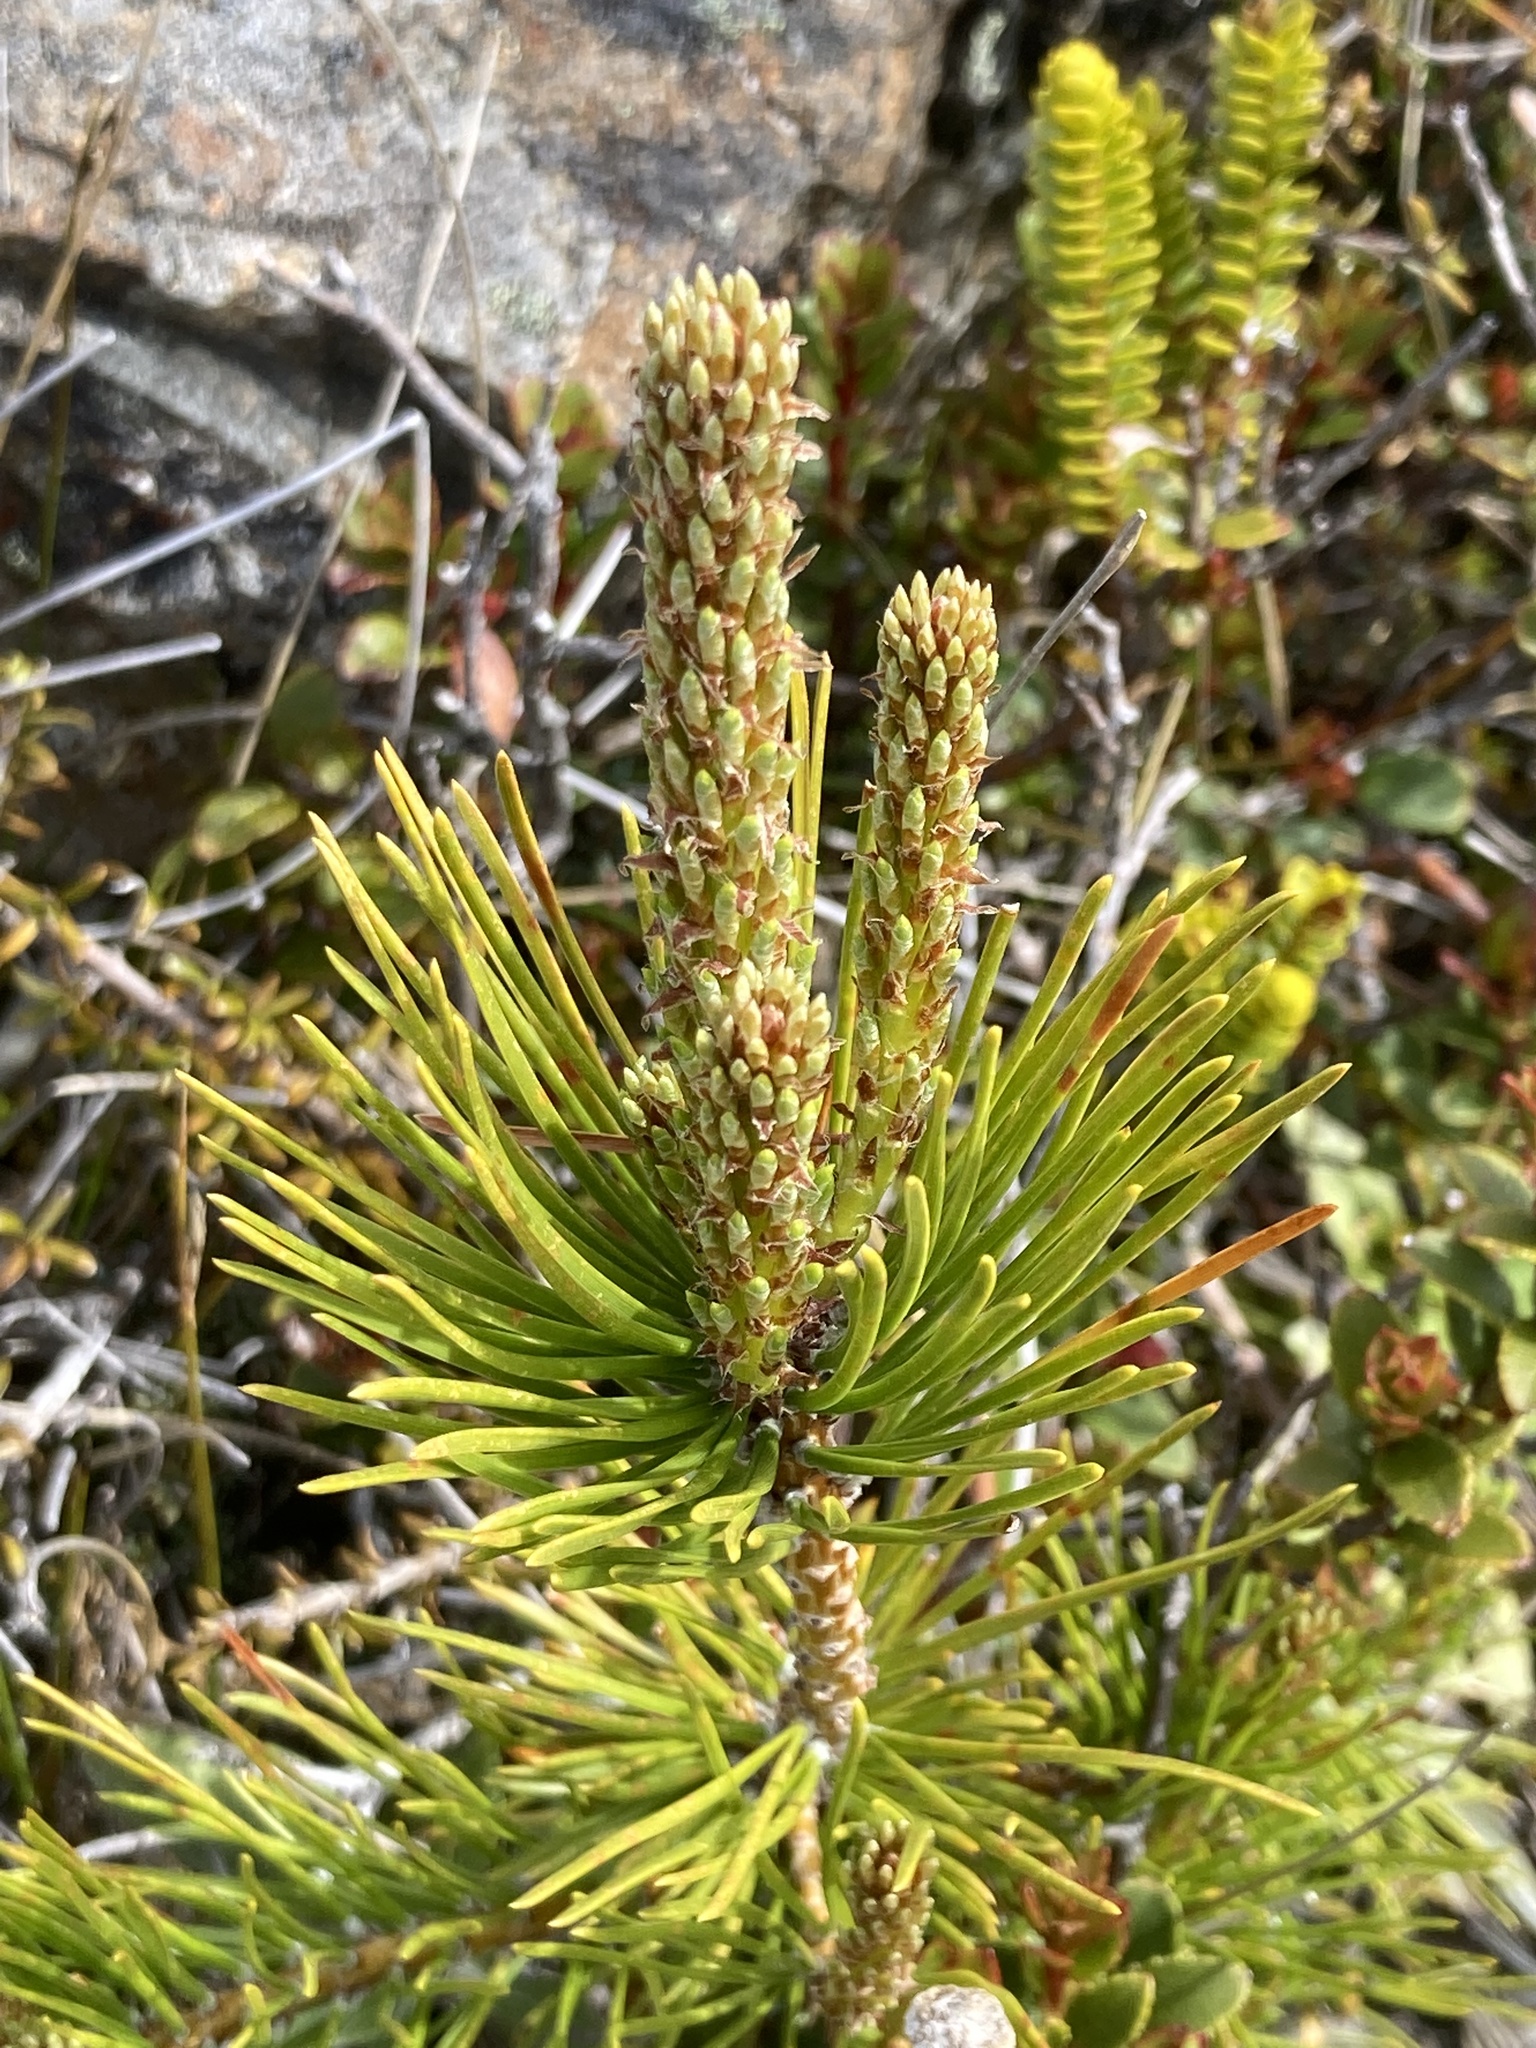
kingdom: Plantae
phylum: Tracheophyta
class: Pinopsida
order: Pinales
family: Pinaceae
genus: Pinus
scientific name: Pinus contorta
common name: Lodgepole pine
